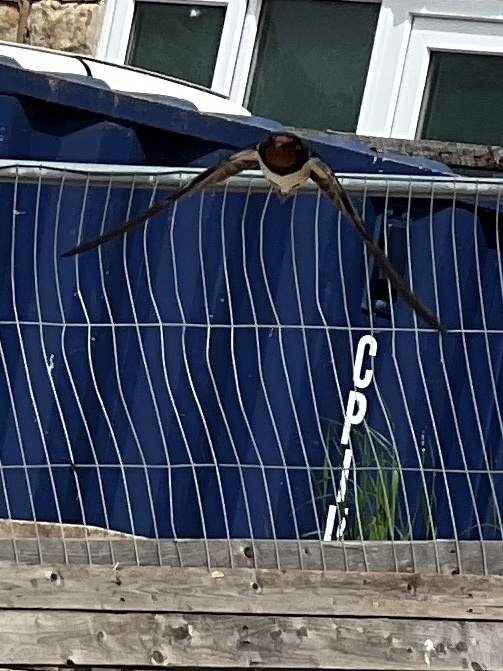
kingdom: Animalia
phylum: Chordata
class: Aves
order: Passeriformes
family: Hirundinidae
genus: Hirundo
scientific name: Hirundo rustica
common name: Barn swallow
